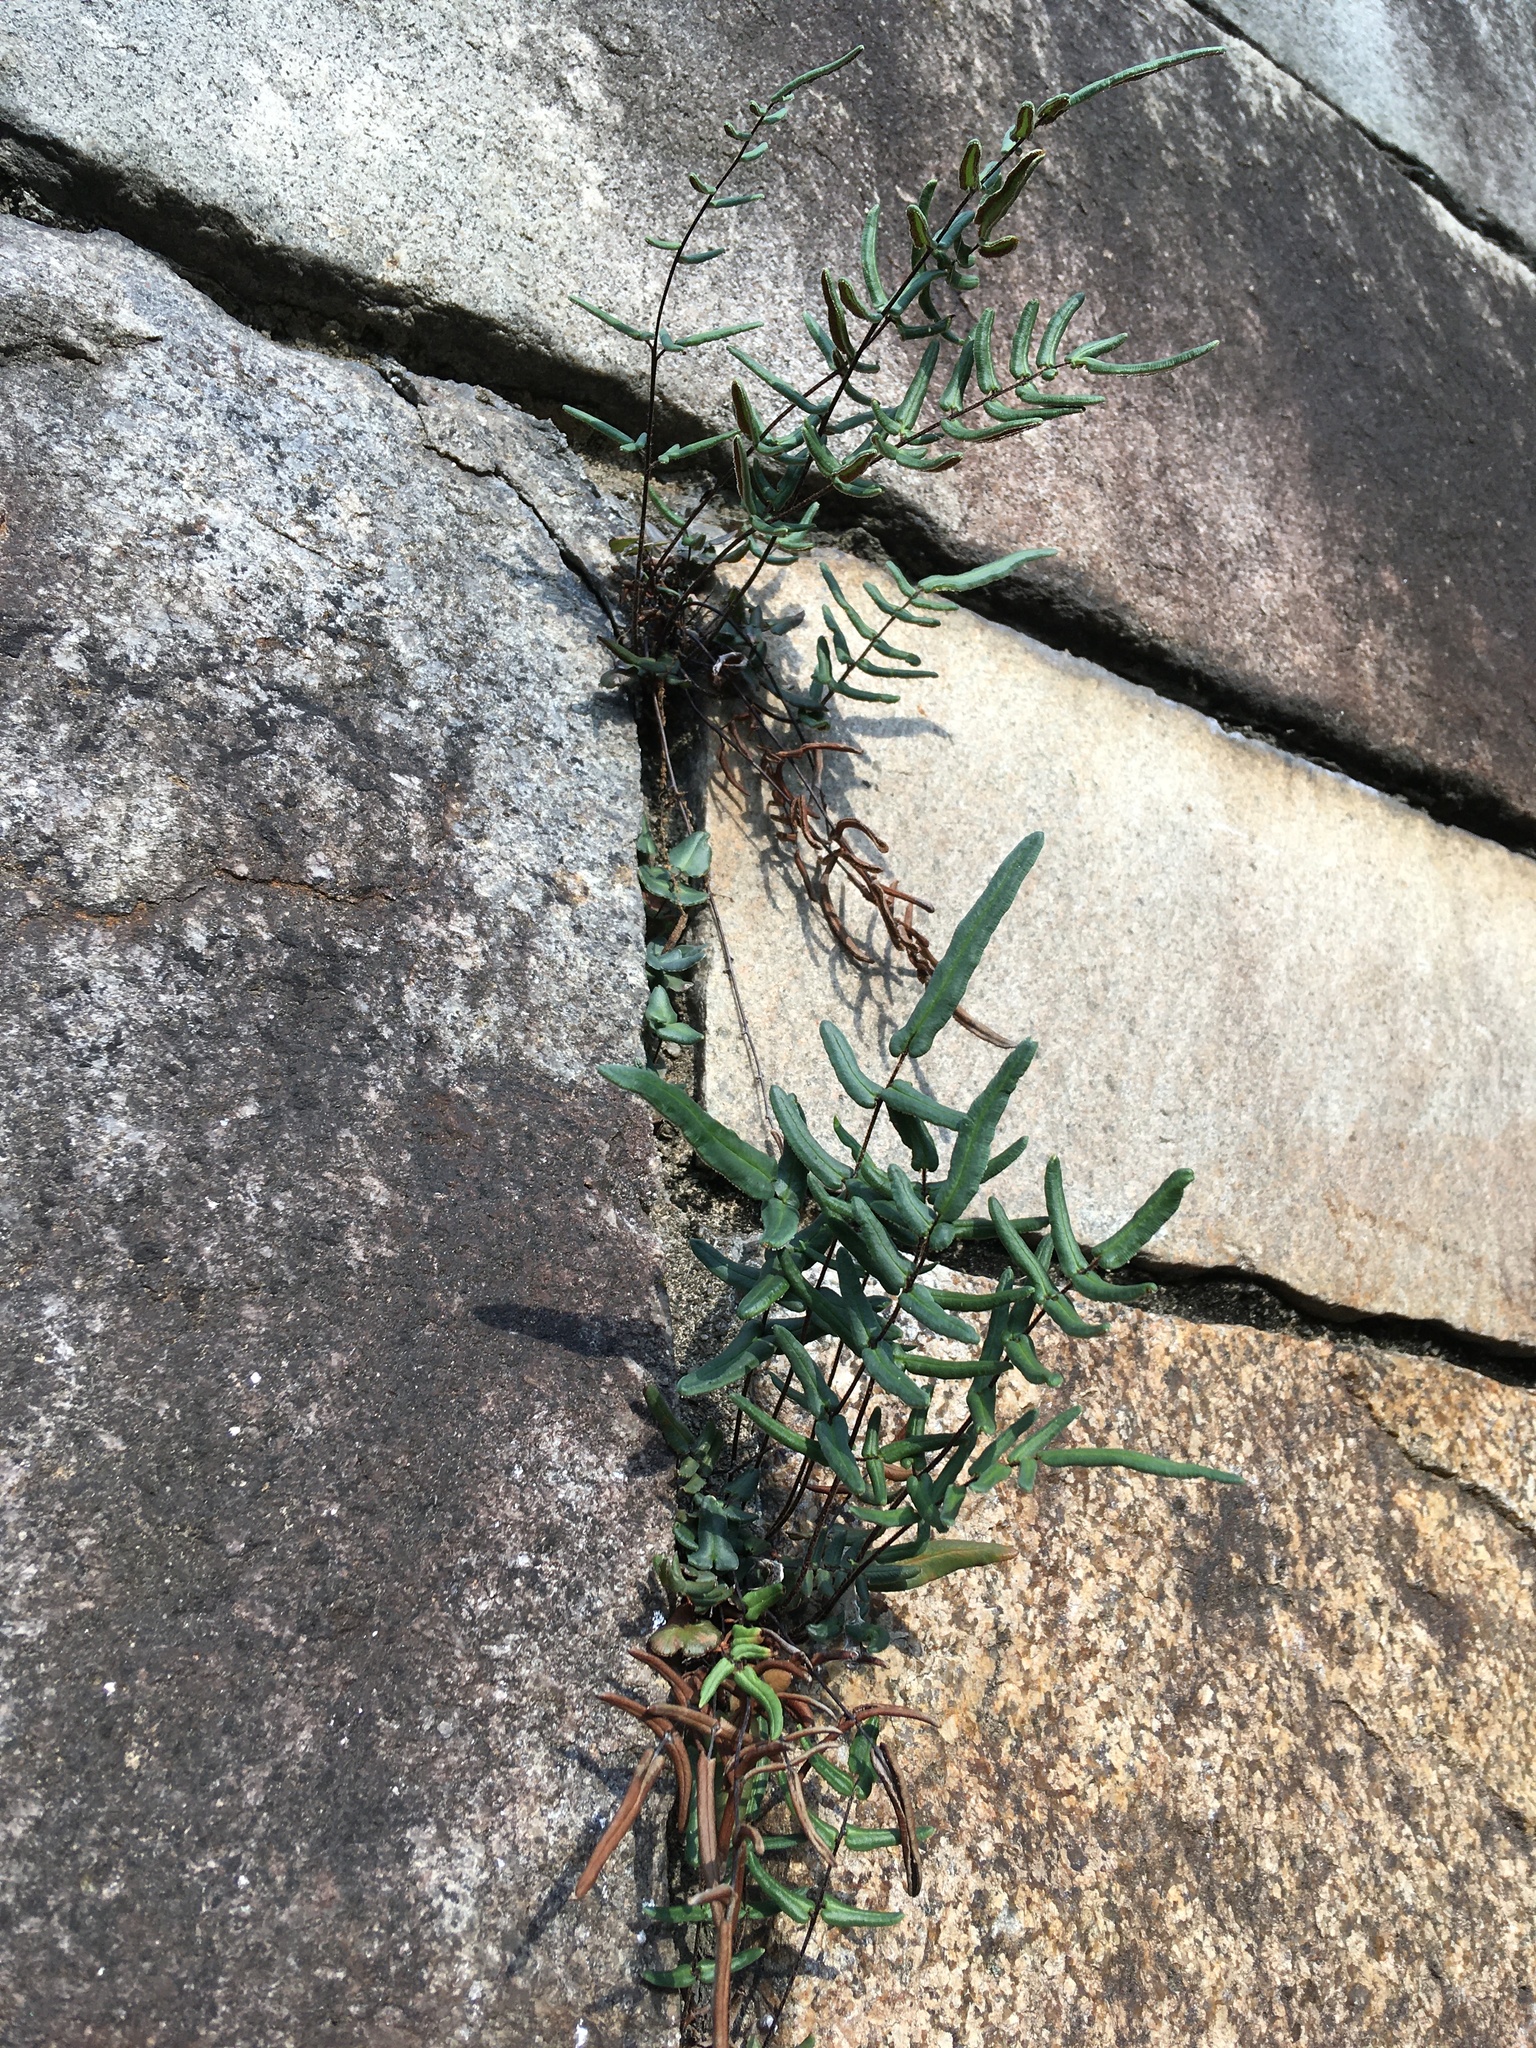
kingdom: Plantae
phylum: Tracheophyta
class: Polypodiopsida
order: Polypodiales
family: Pteridaceae
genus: Pellaea
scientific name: Pellaea atropurpurea
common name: Hairy cliffbrake
